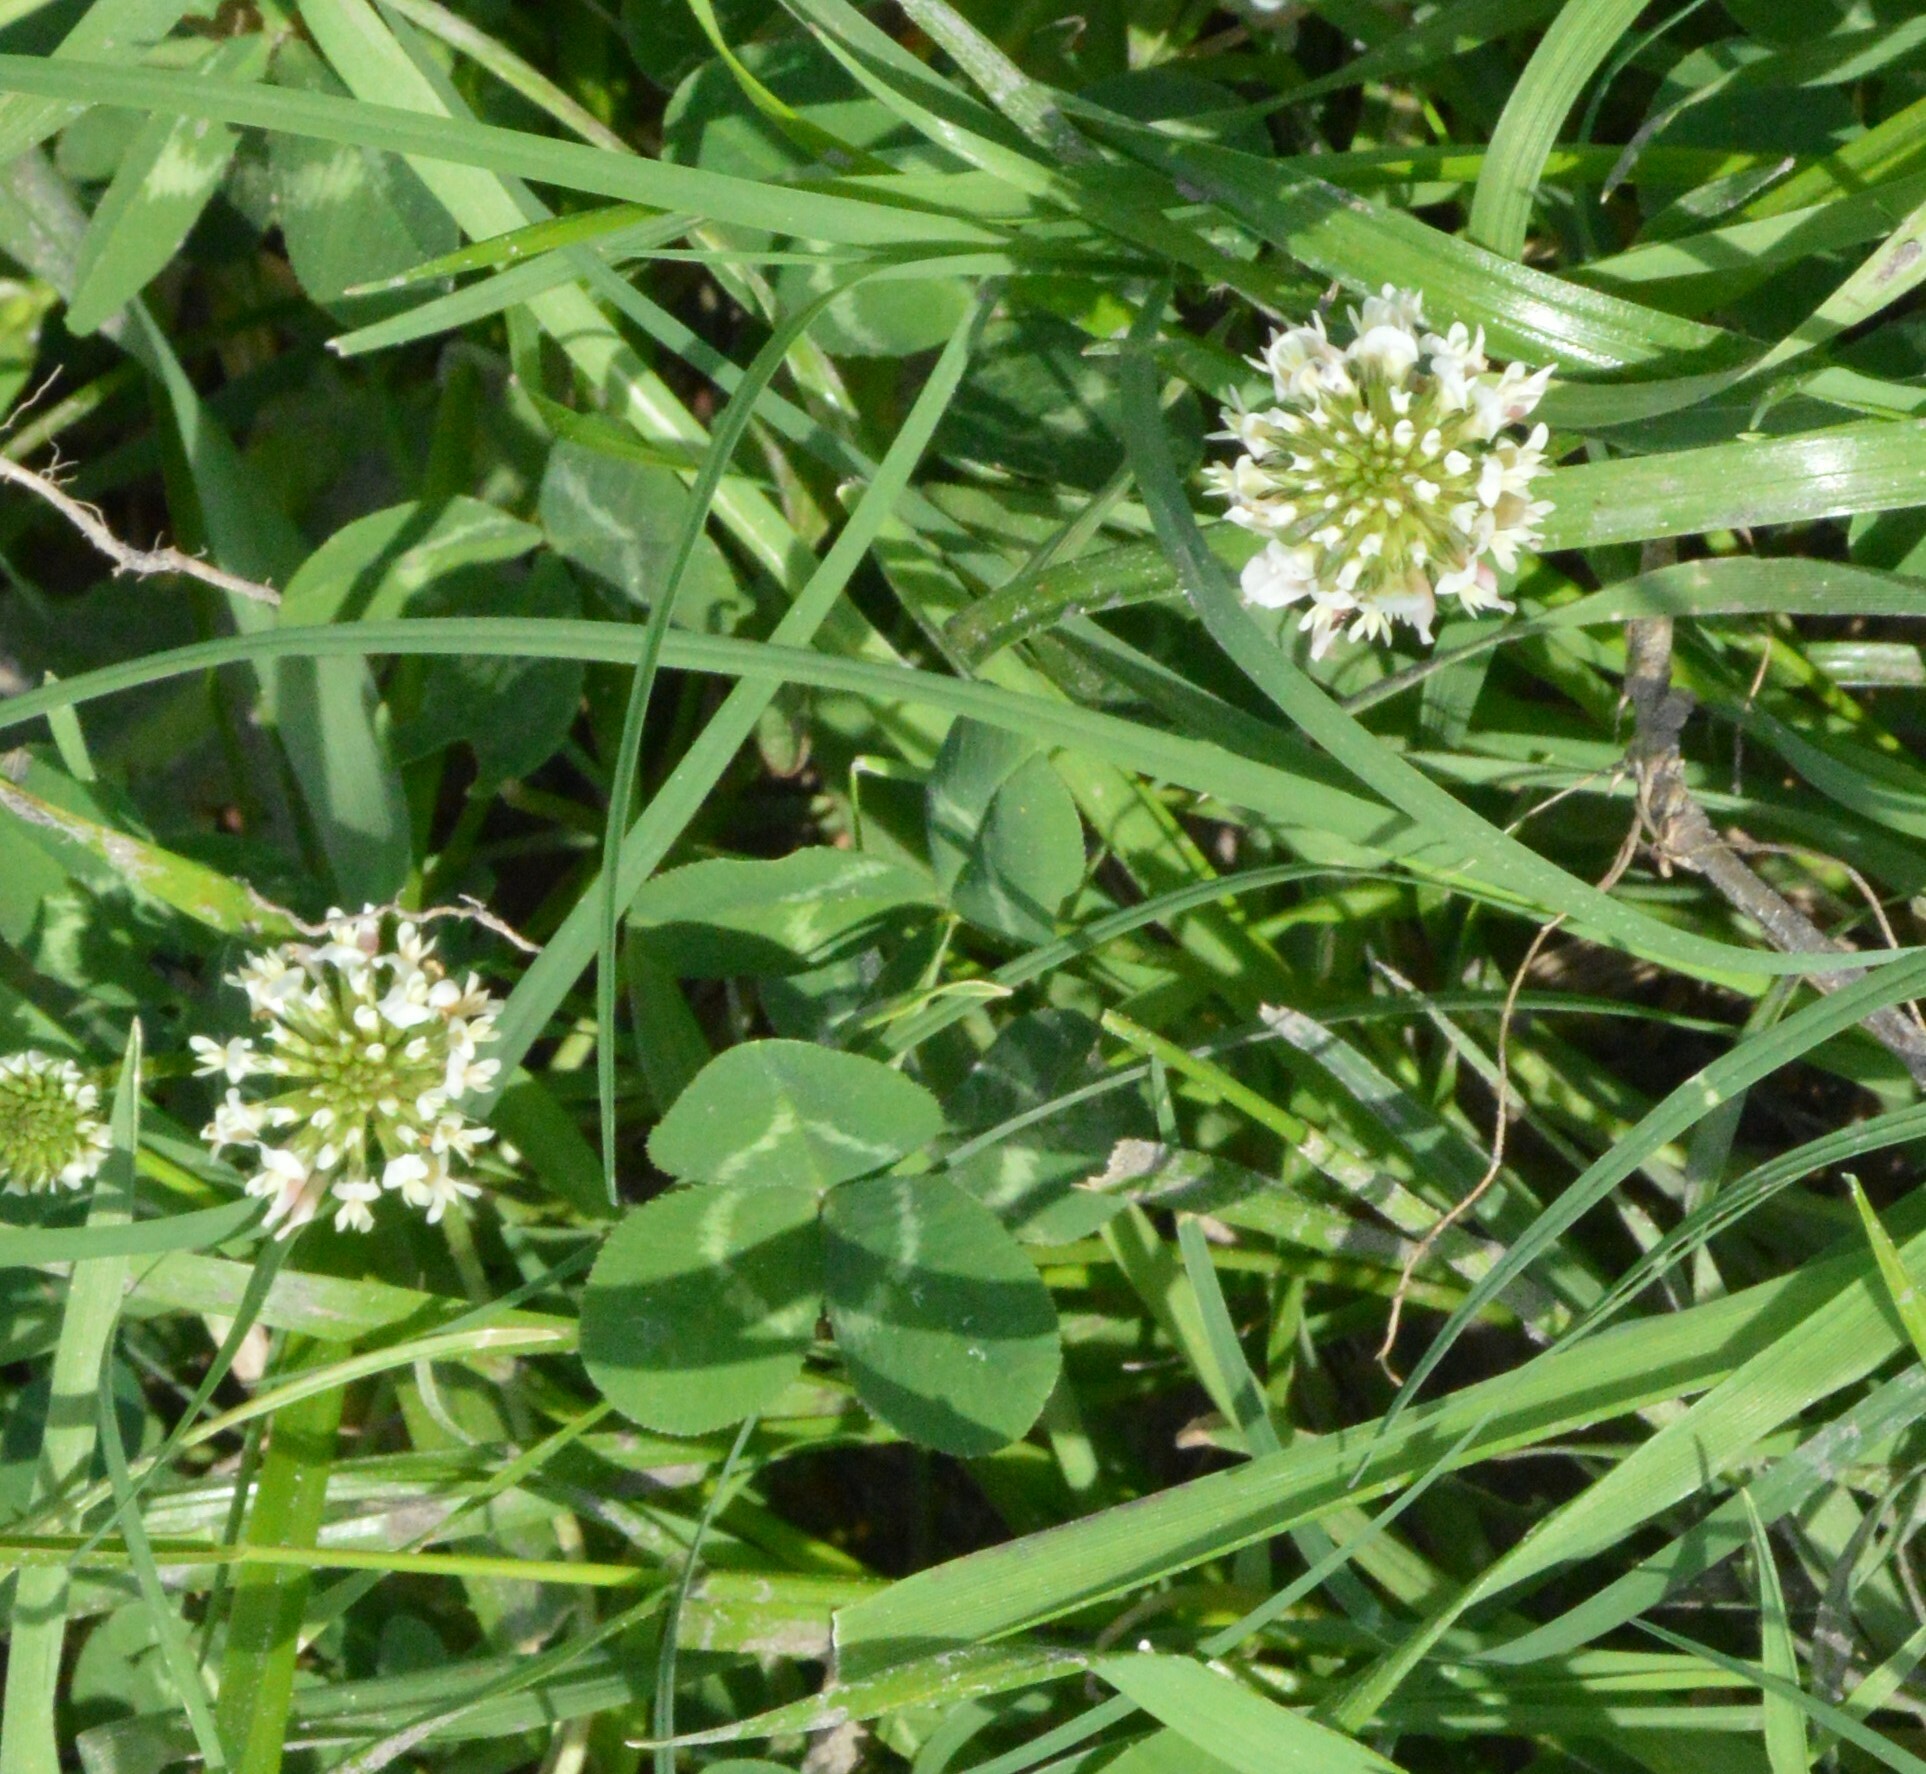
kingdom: Plantae
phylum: Tracheophyta
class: Magnoliopsida
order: Fabales
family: Fabaceae
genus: Trifolium
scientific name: Trifolium repens
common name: White clover
